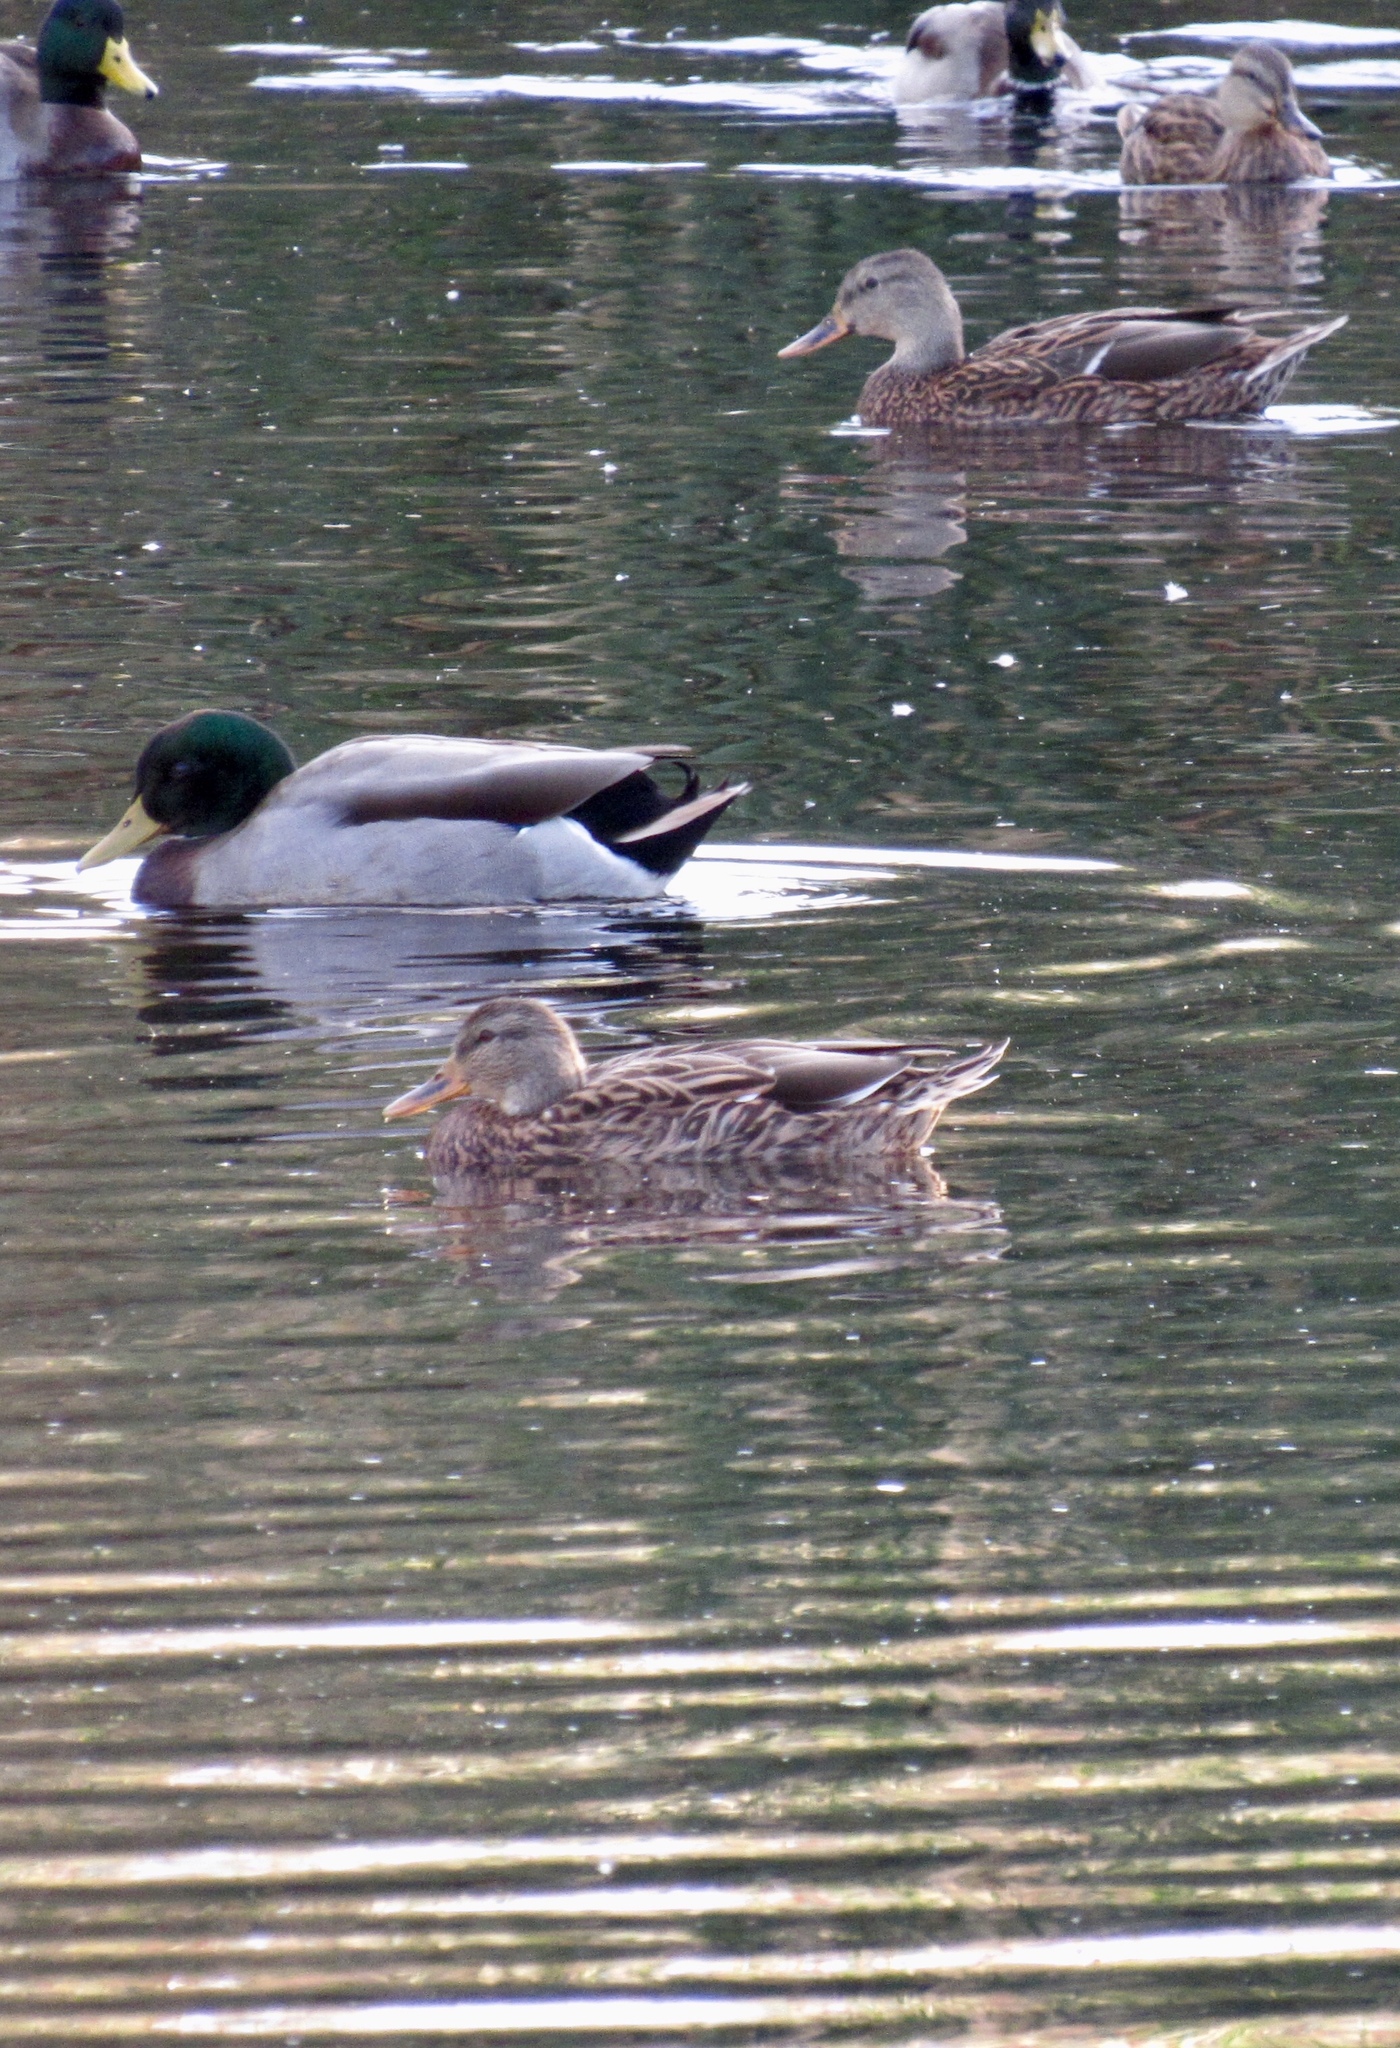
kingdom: Animalia
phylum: Chordata
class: Aves
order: Anseriformes
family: Anatidae
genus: Anas
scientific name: Anas platyrhynchos
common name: Mallard
